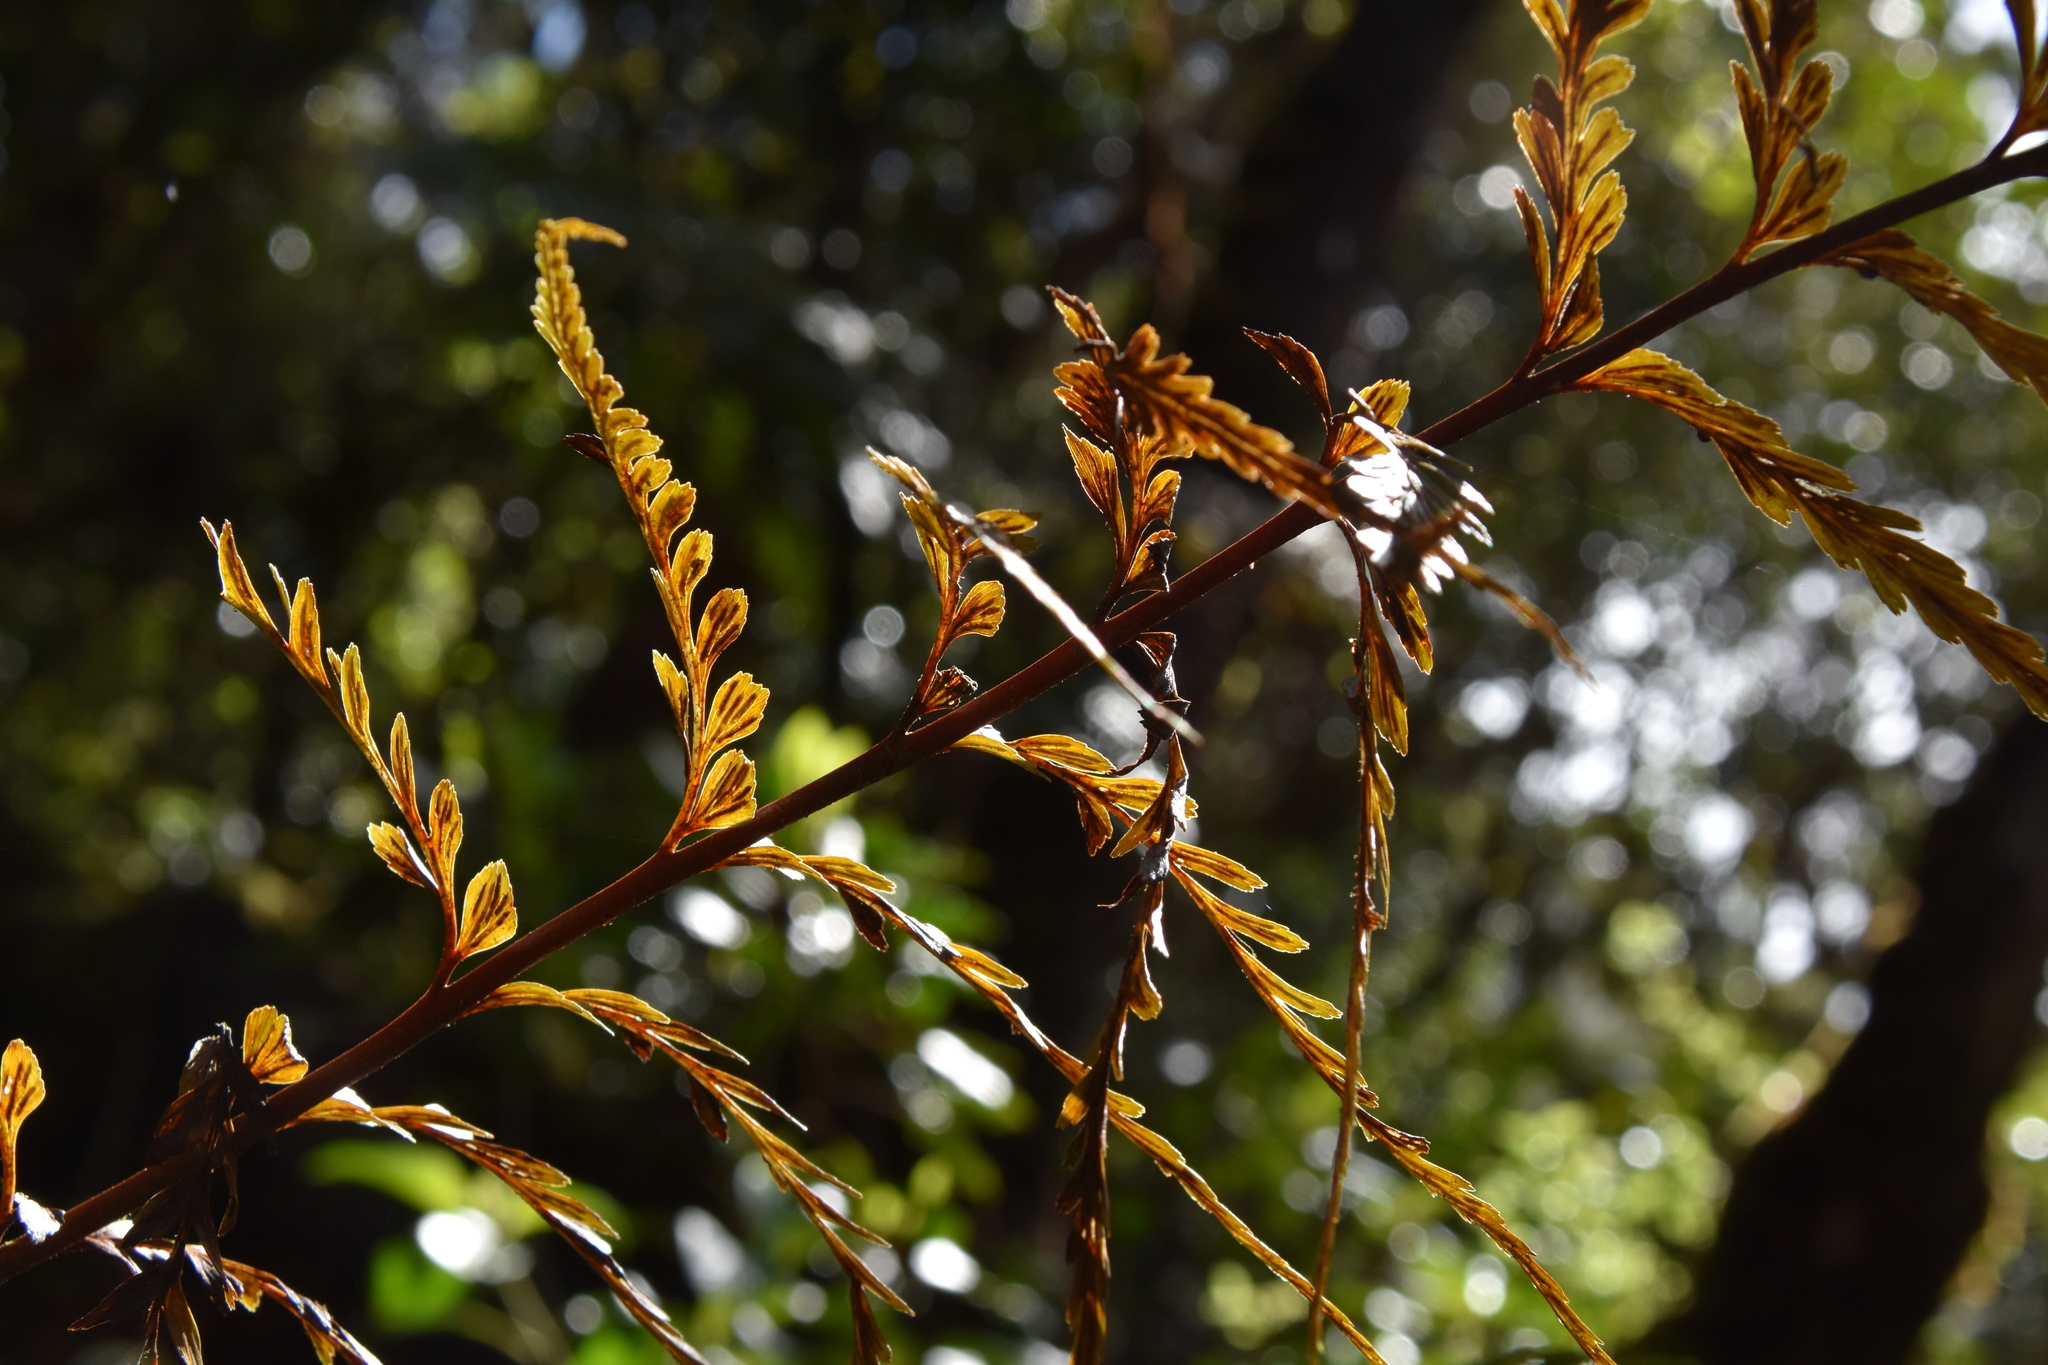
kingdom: Plantae
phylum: Tracheophyta
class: Polypodiopsida
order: Polypodiales
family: Aspleniaceae
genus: Asplenium
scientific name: Asplenium aethiopicum
